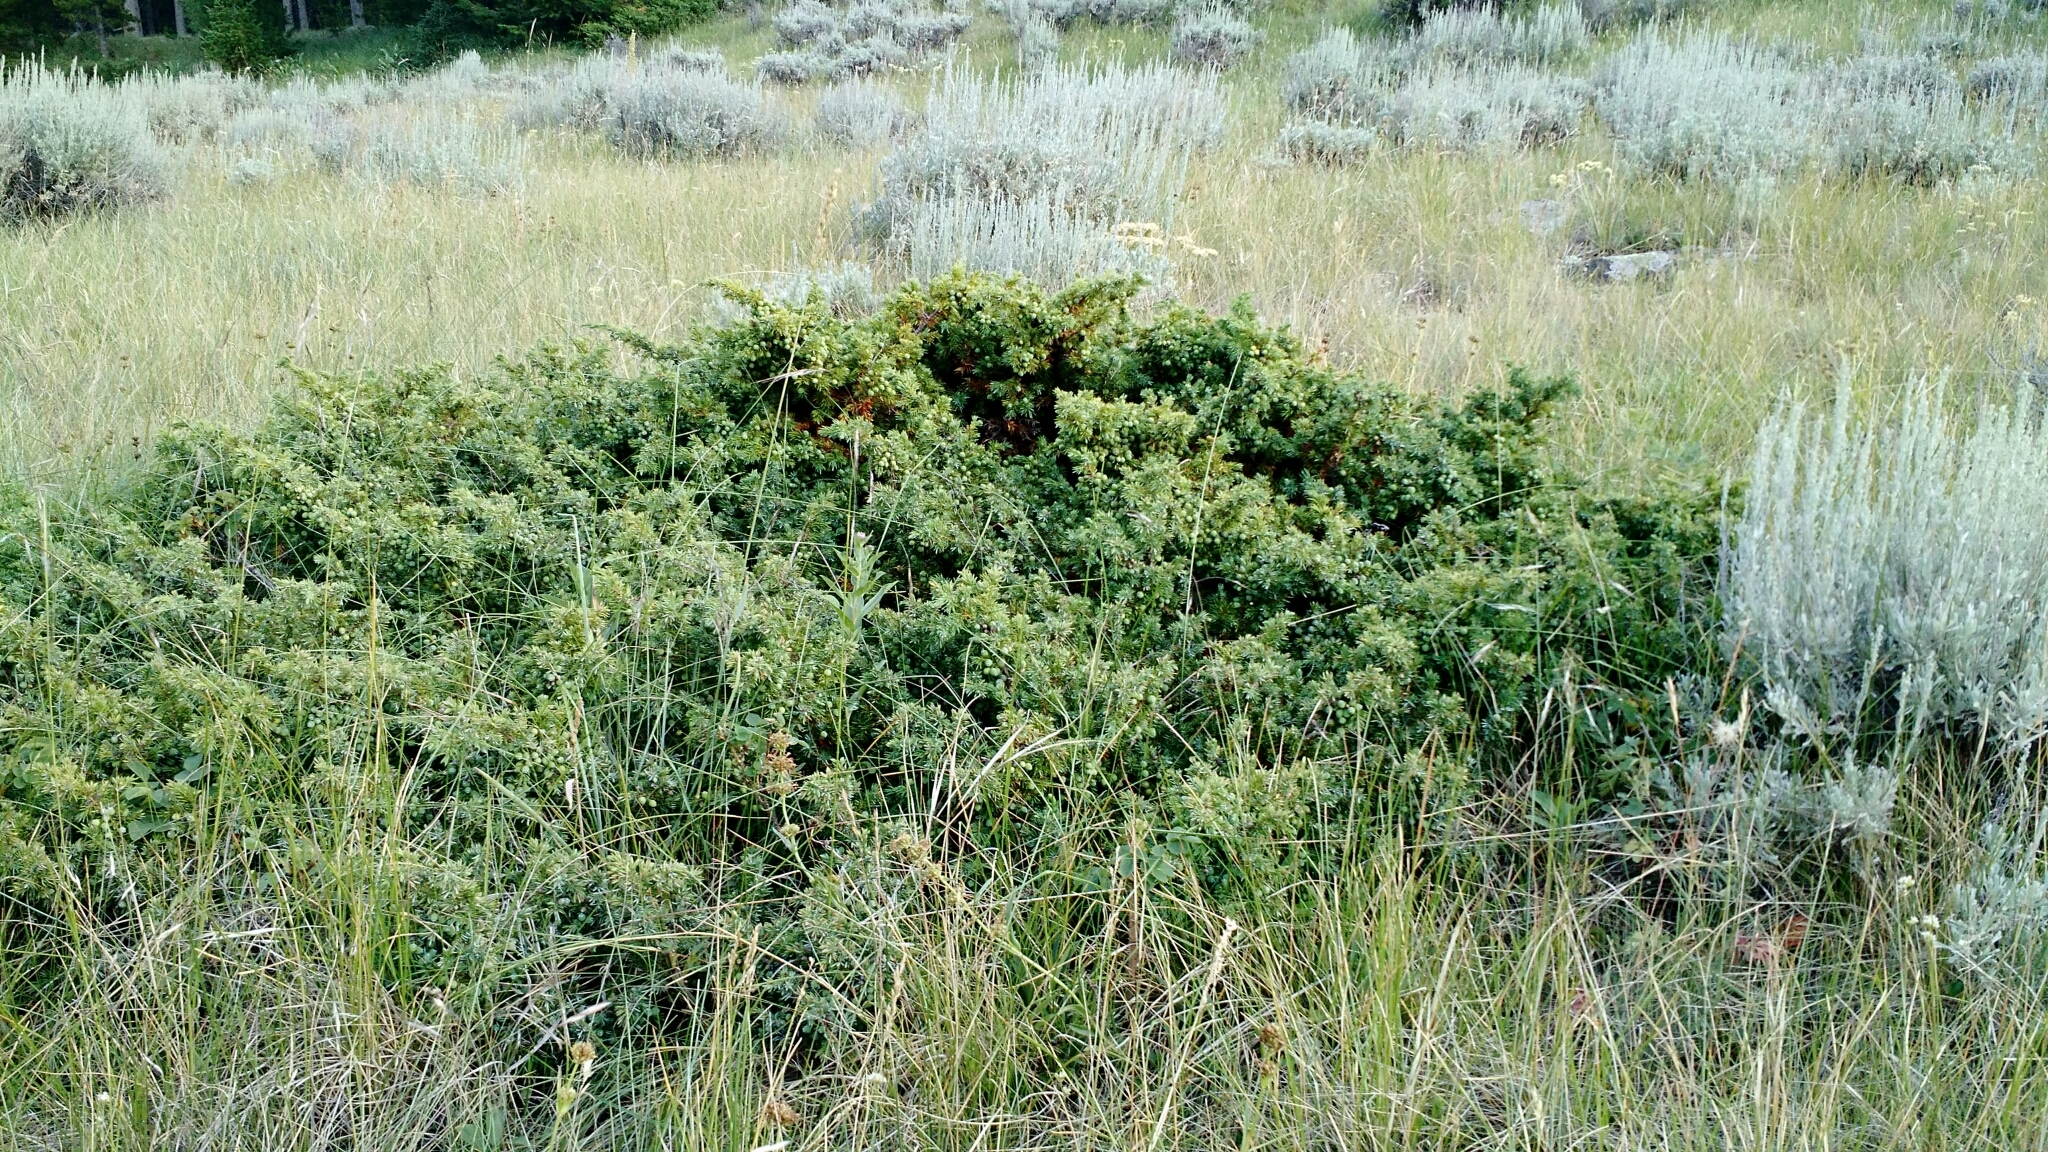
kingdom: Plantae
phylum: Tracheophyta
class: Pinopsida
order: Pinales
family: Cupressaceae
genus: Juniperus
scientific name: Juniperus communis
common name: Common juniper
